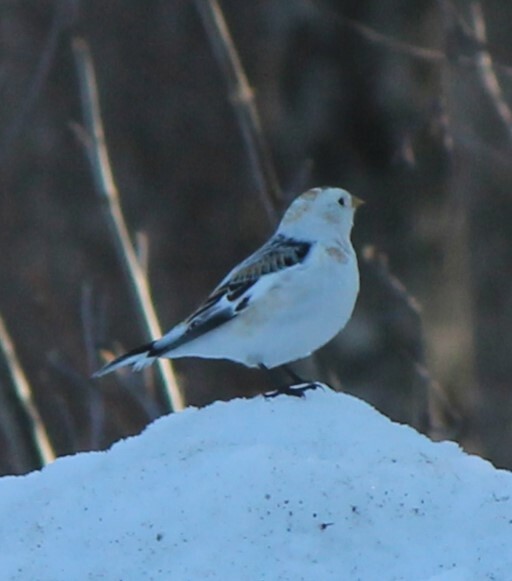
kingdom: Animalia
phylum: Chordata
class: Aves
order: Passeriformes
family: Calcariidae
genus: Plectrophenax
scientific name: Plectrophenax nivalis
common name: Snow bunting
